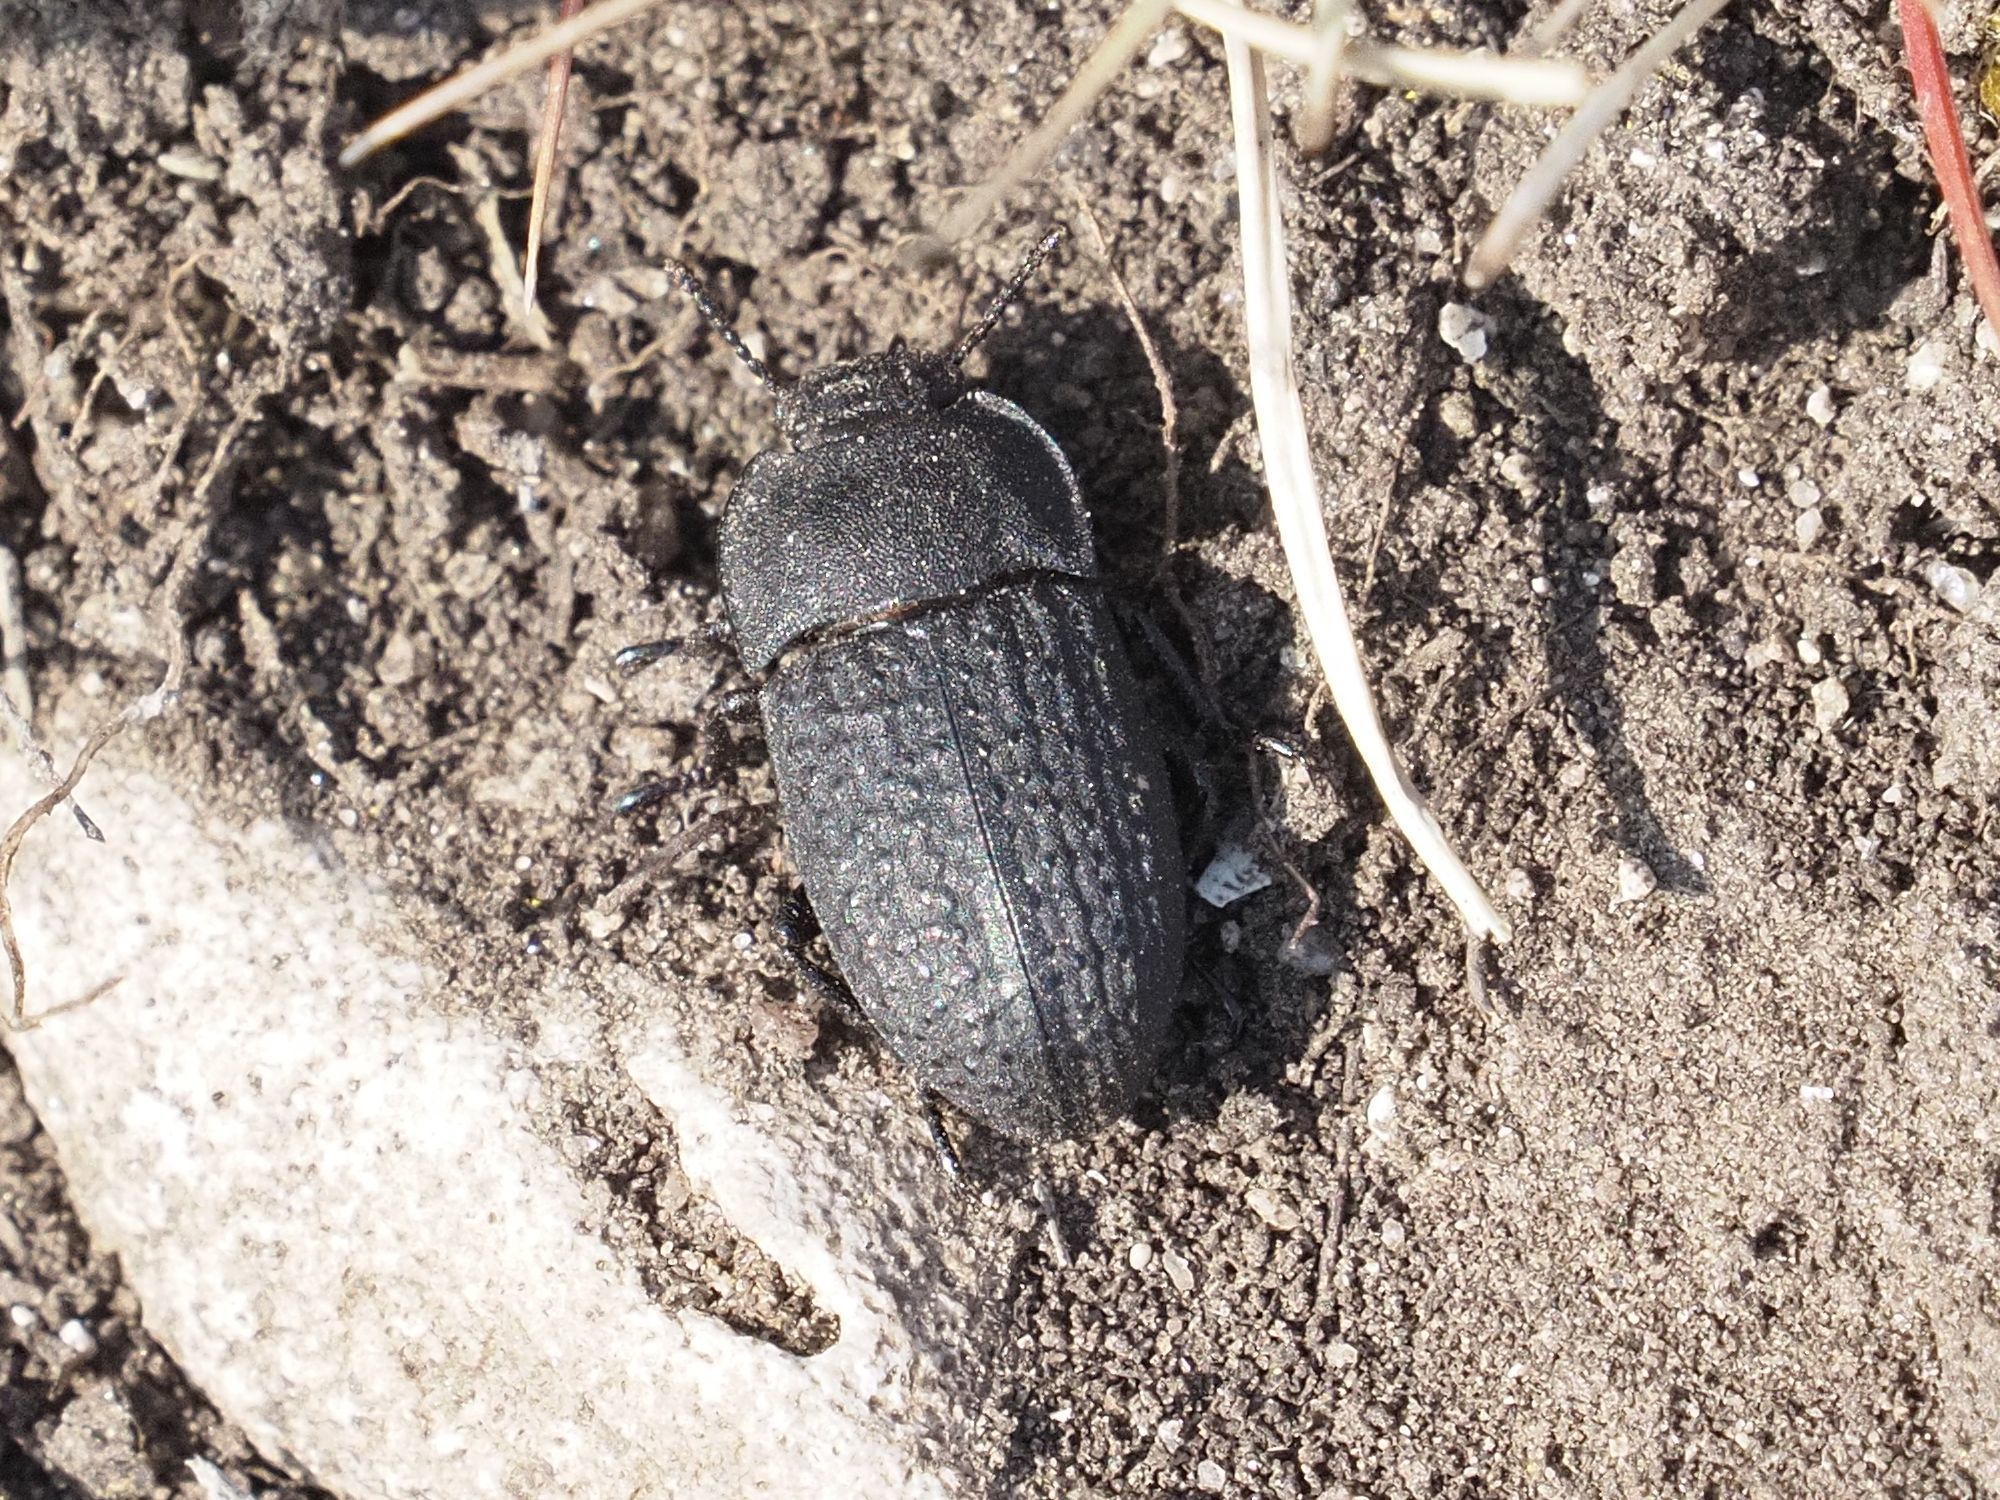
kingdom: Animalia
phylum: Arthropoda
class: Insecta
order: Coleoptera
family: Tenebrionidae
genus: Opatrum
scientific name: Opatrum sabulosum
